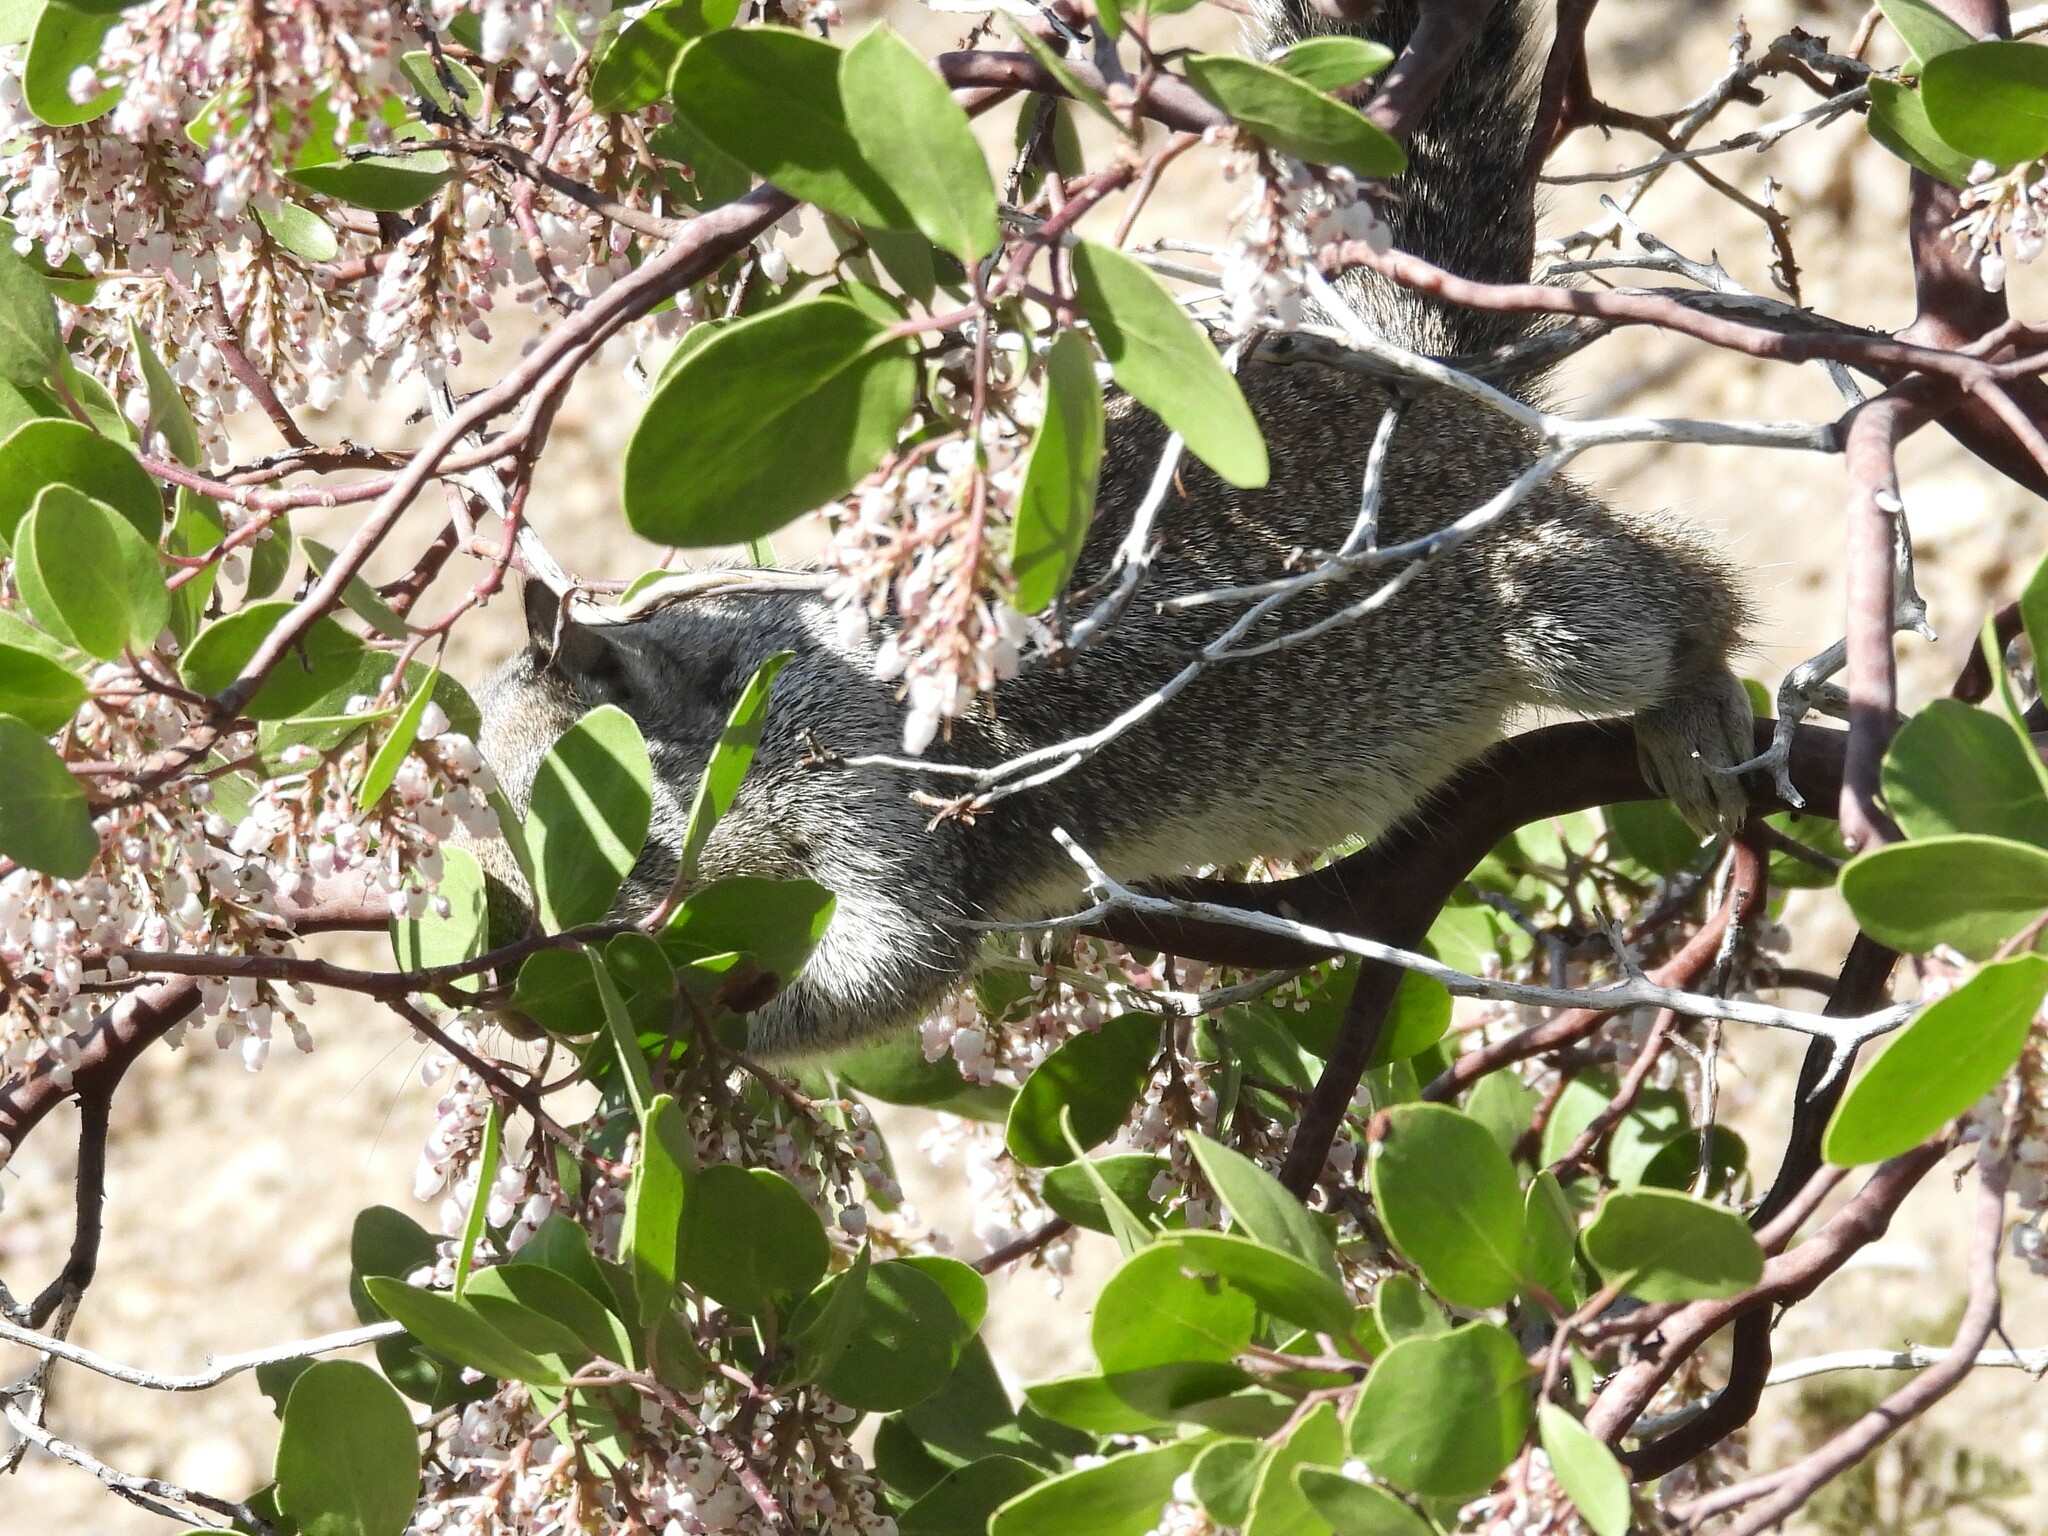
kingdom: Animalia
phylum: Chordata
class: Mammalia
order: Rodentia
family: Sciuridae
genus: Otospermophilus
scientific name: Otospermophilus beecheyi
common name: California ground squirrel
